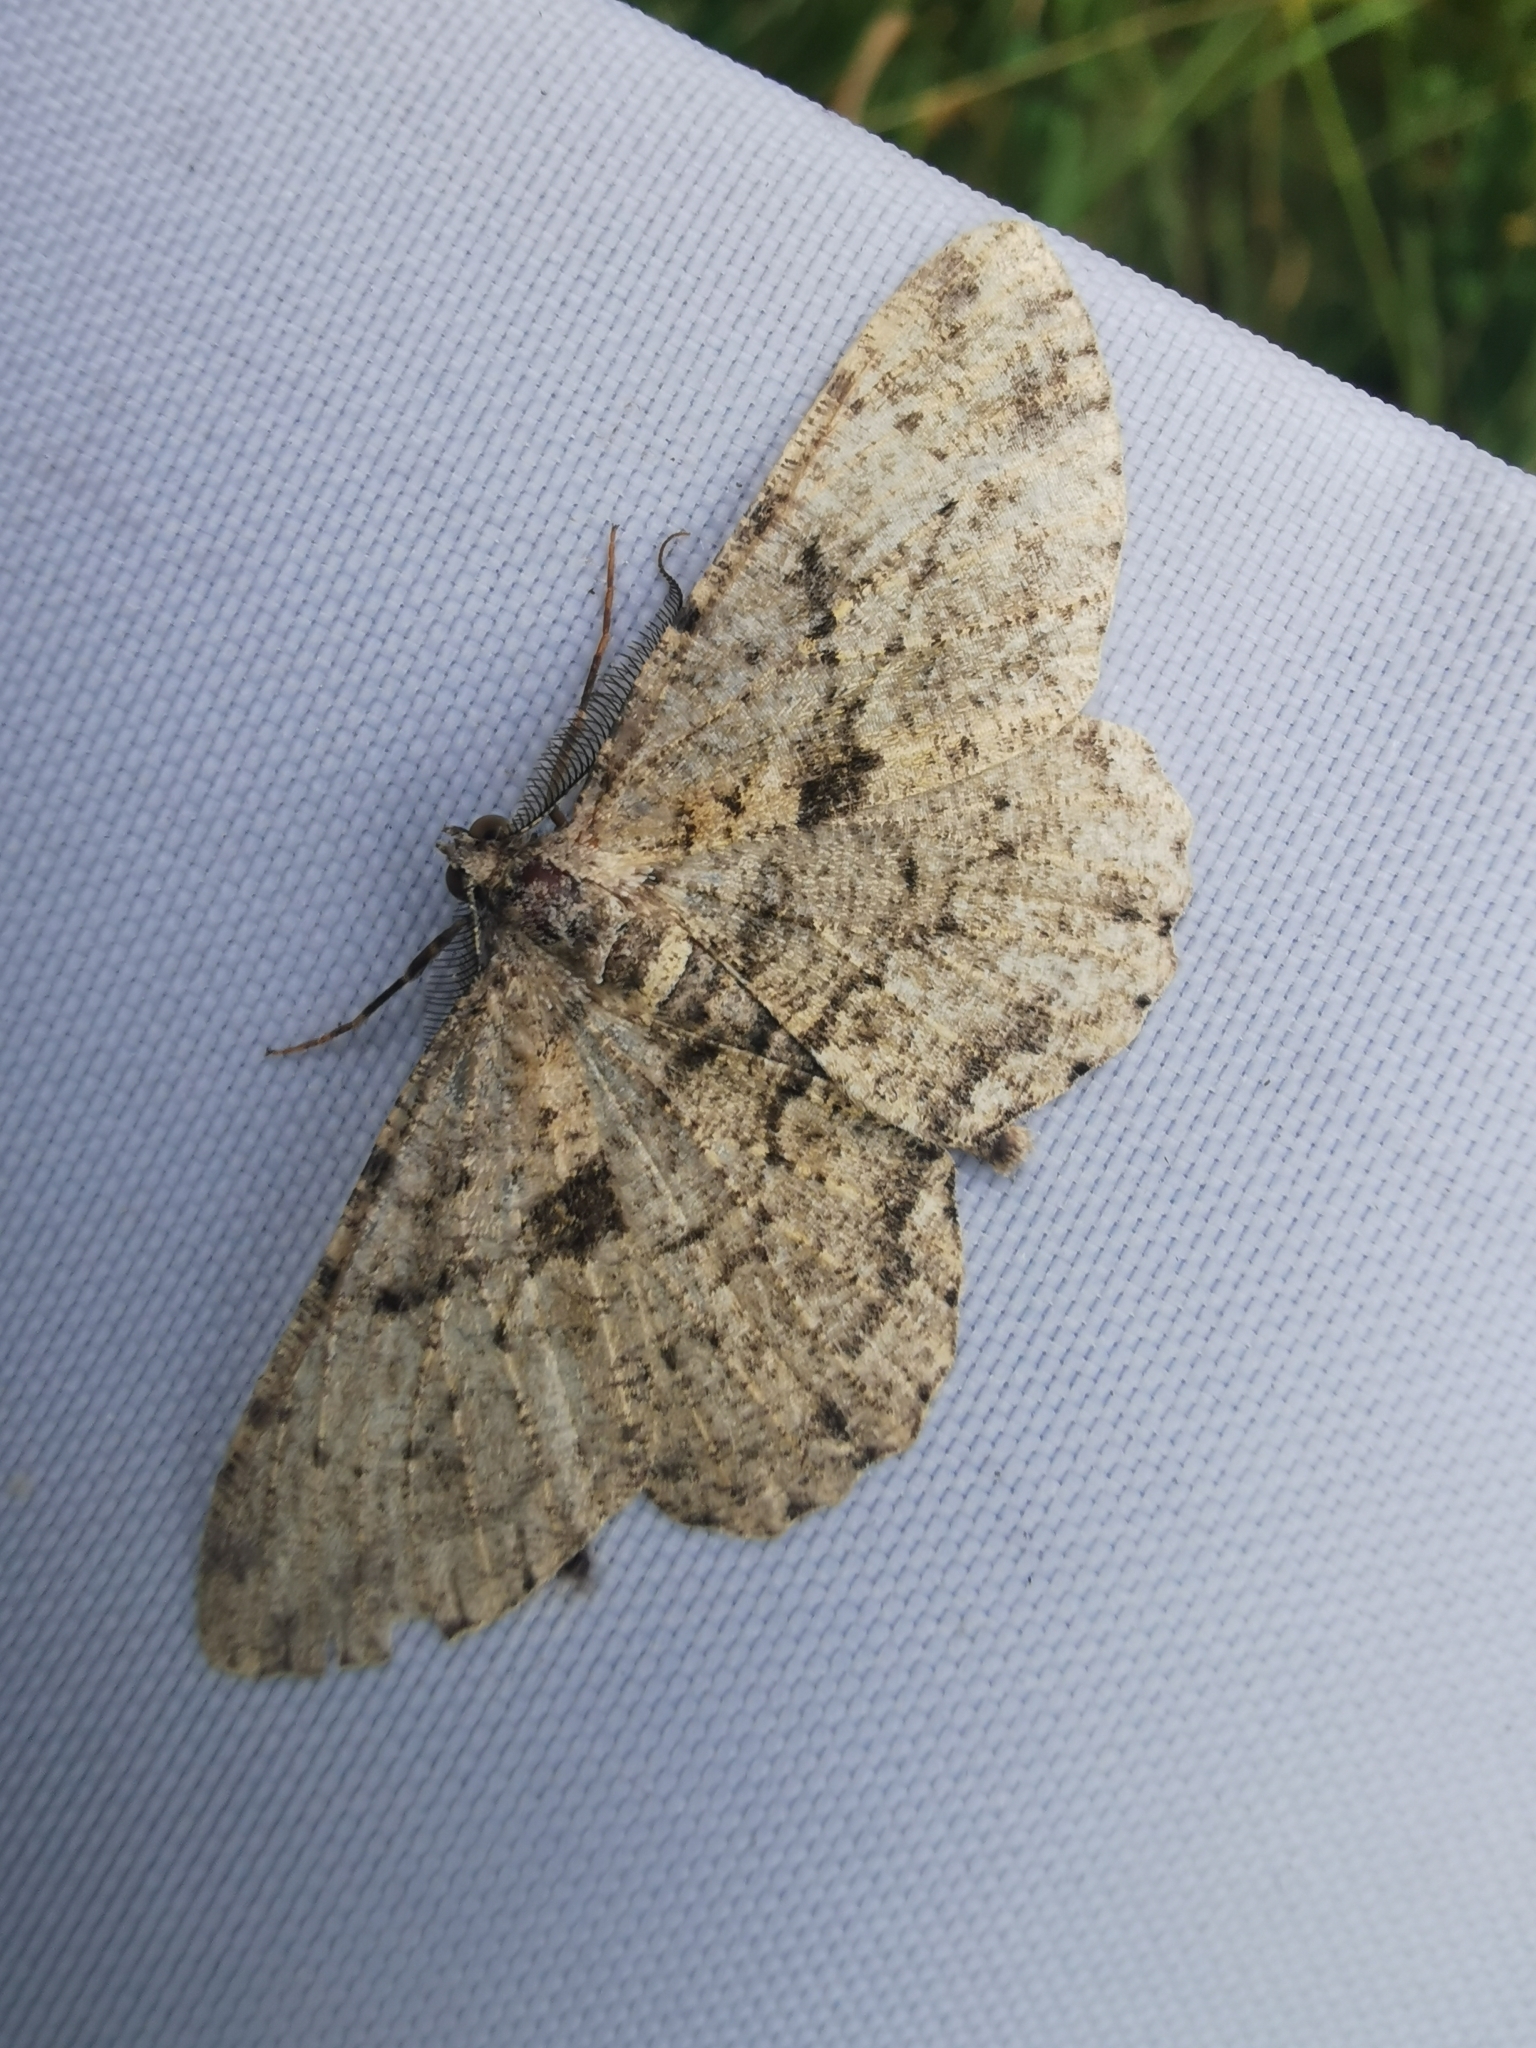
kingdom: Animalia
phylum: Arthropoda
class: Insecta
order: Lepidoptera
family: Geometridae
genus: Peribatodes
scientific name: Peribatodes rhomboidaria
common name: Willow beauty
